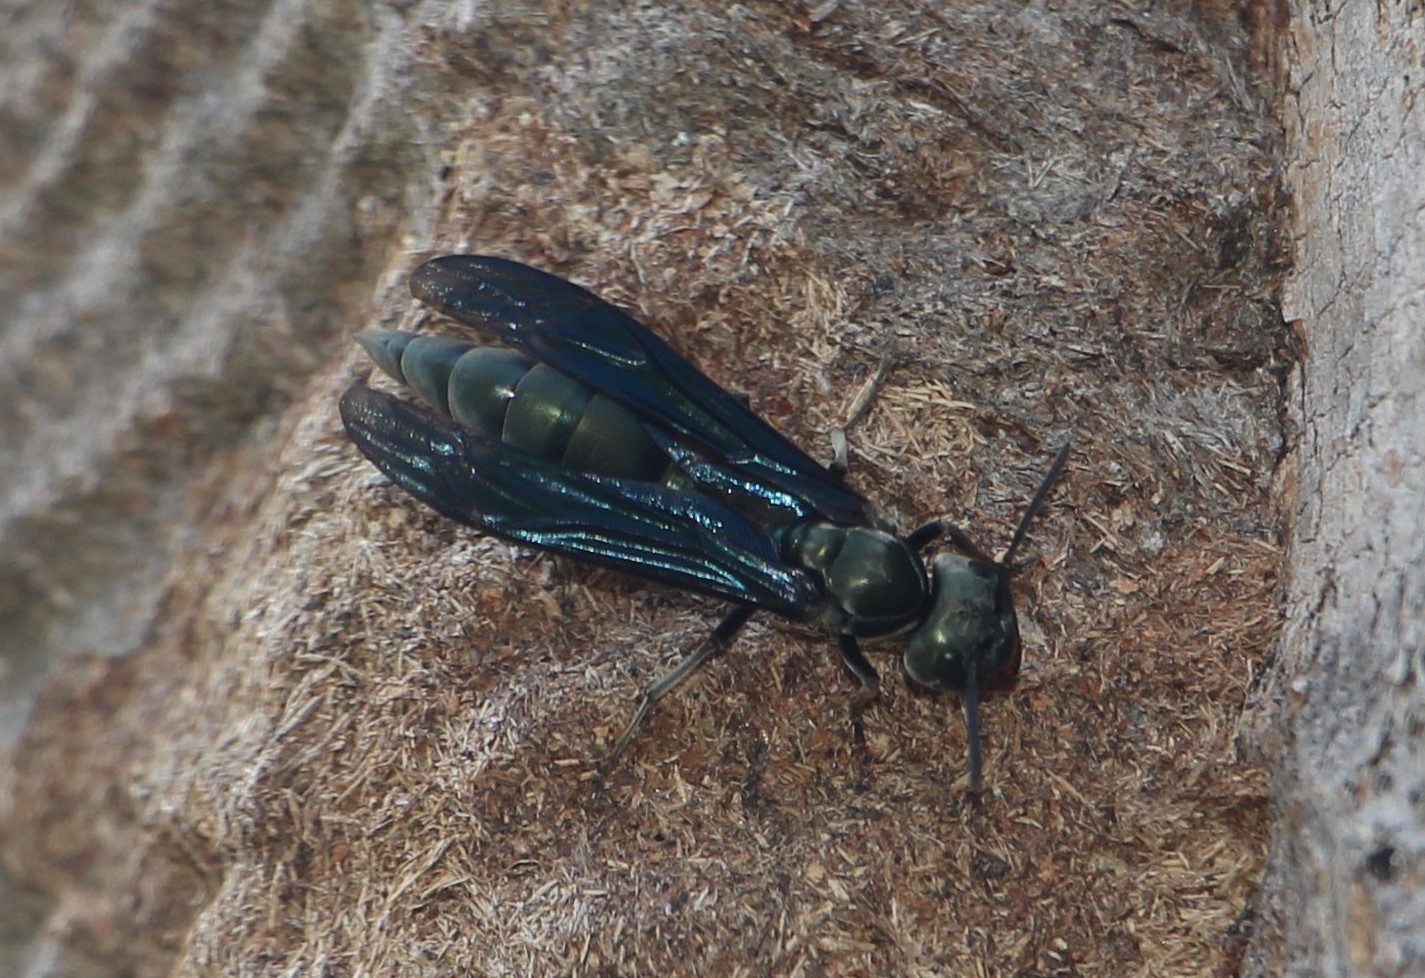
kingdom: Animalia
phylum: Arthropoda
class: Insecta
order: Hymenoptera
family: Vespidae
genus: Synoeca
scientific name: Synoeca septentrionalis
